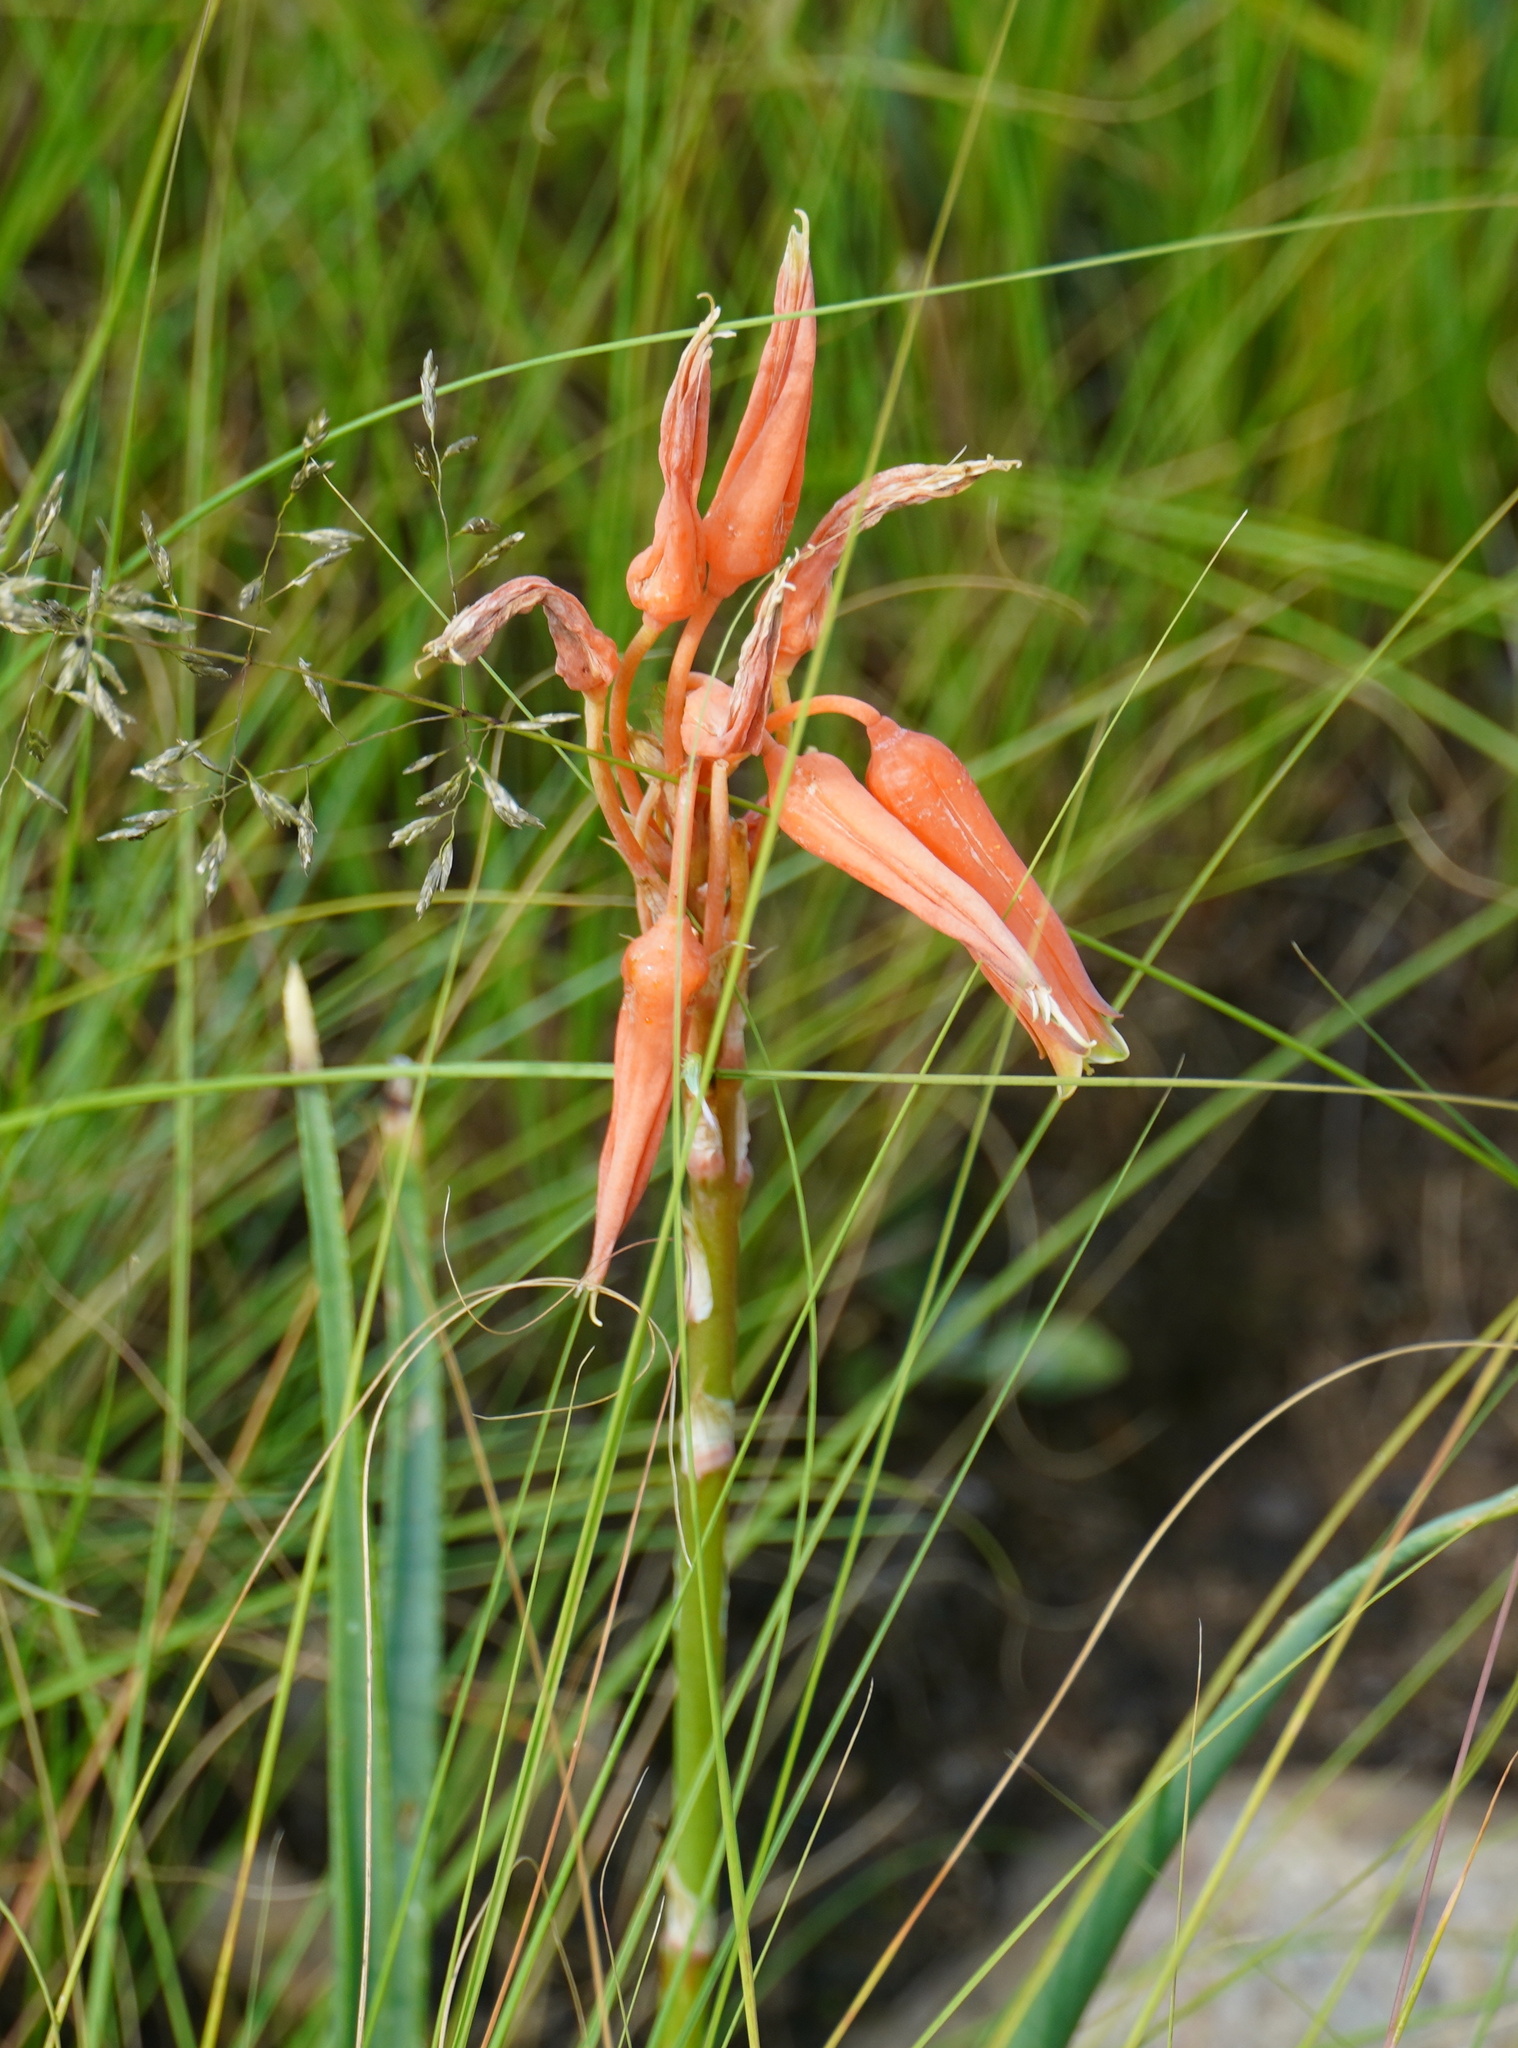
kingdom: Plantae
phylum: Tracheophyta
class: Liliopsida
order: Asparagales
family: Asphodelaceae
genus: Aloe
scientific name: Aloe verecunda
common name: Grass aloe
